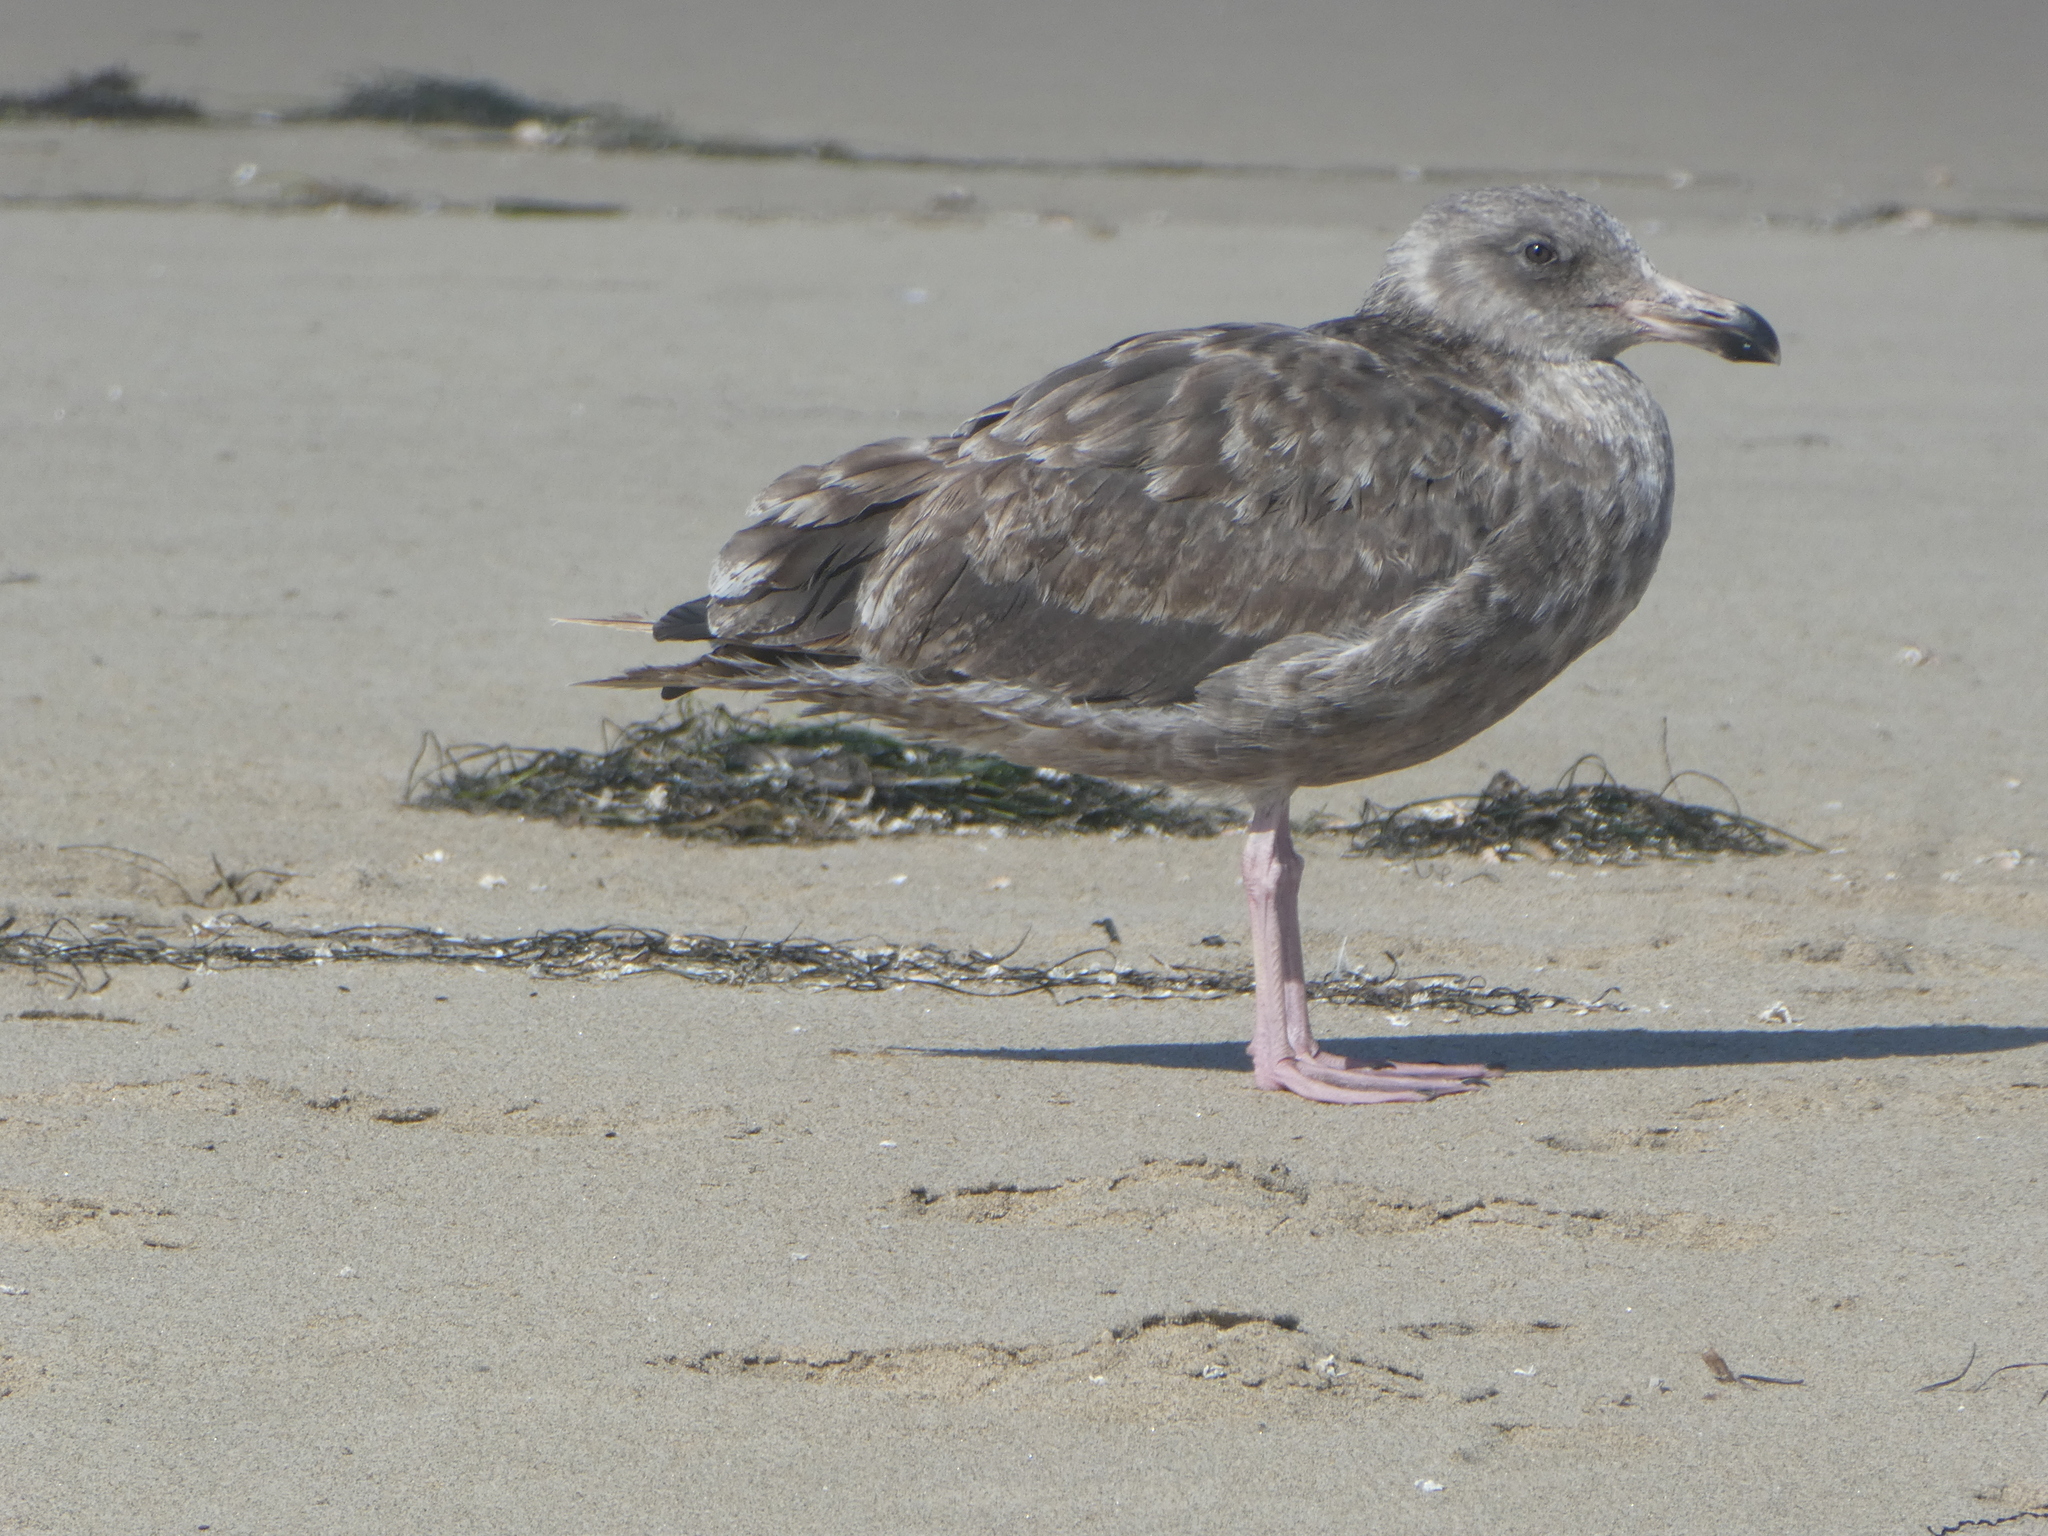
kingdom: Animalia
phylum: Chordata
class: Aves
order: Charadriiformes
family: Laridae
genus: Larus
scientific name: Larus occidentalis
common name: Western gull
